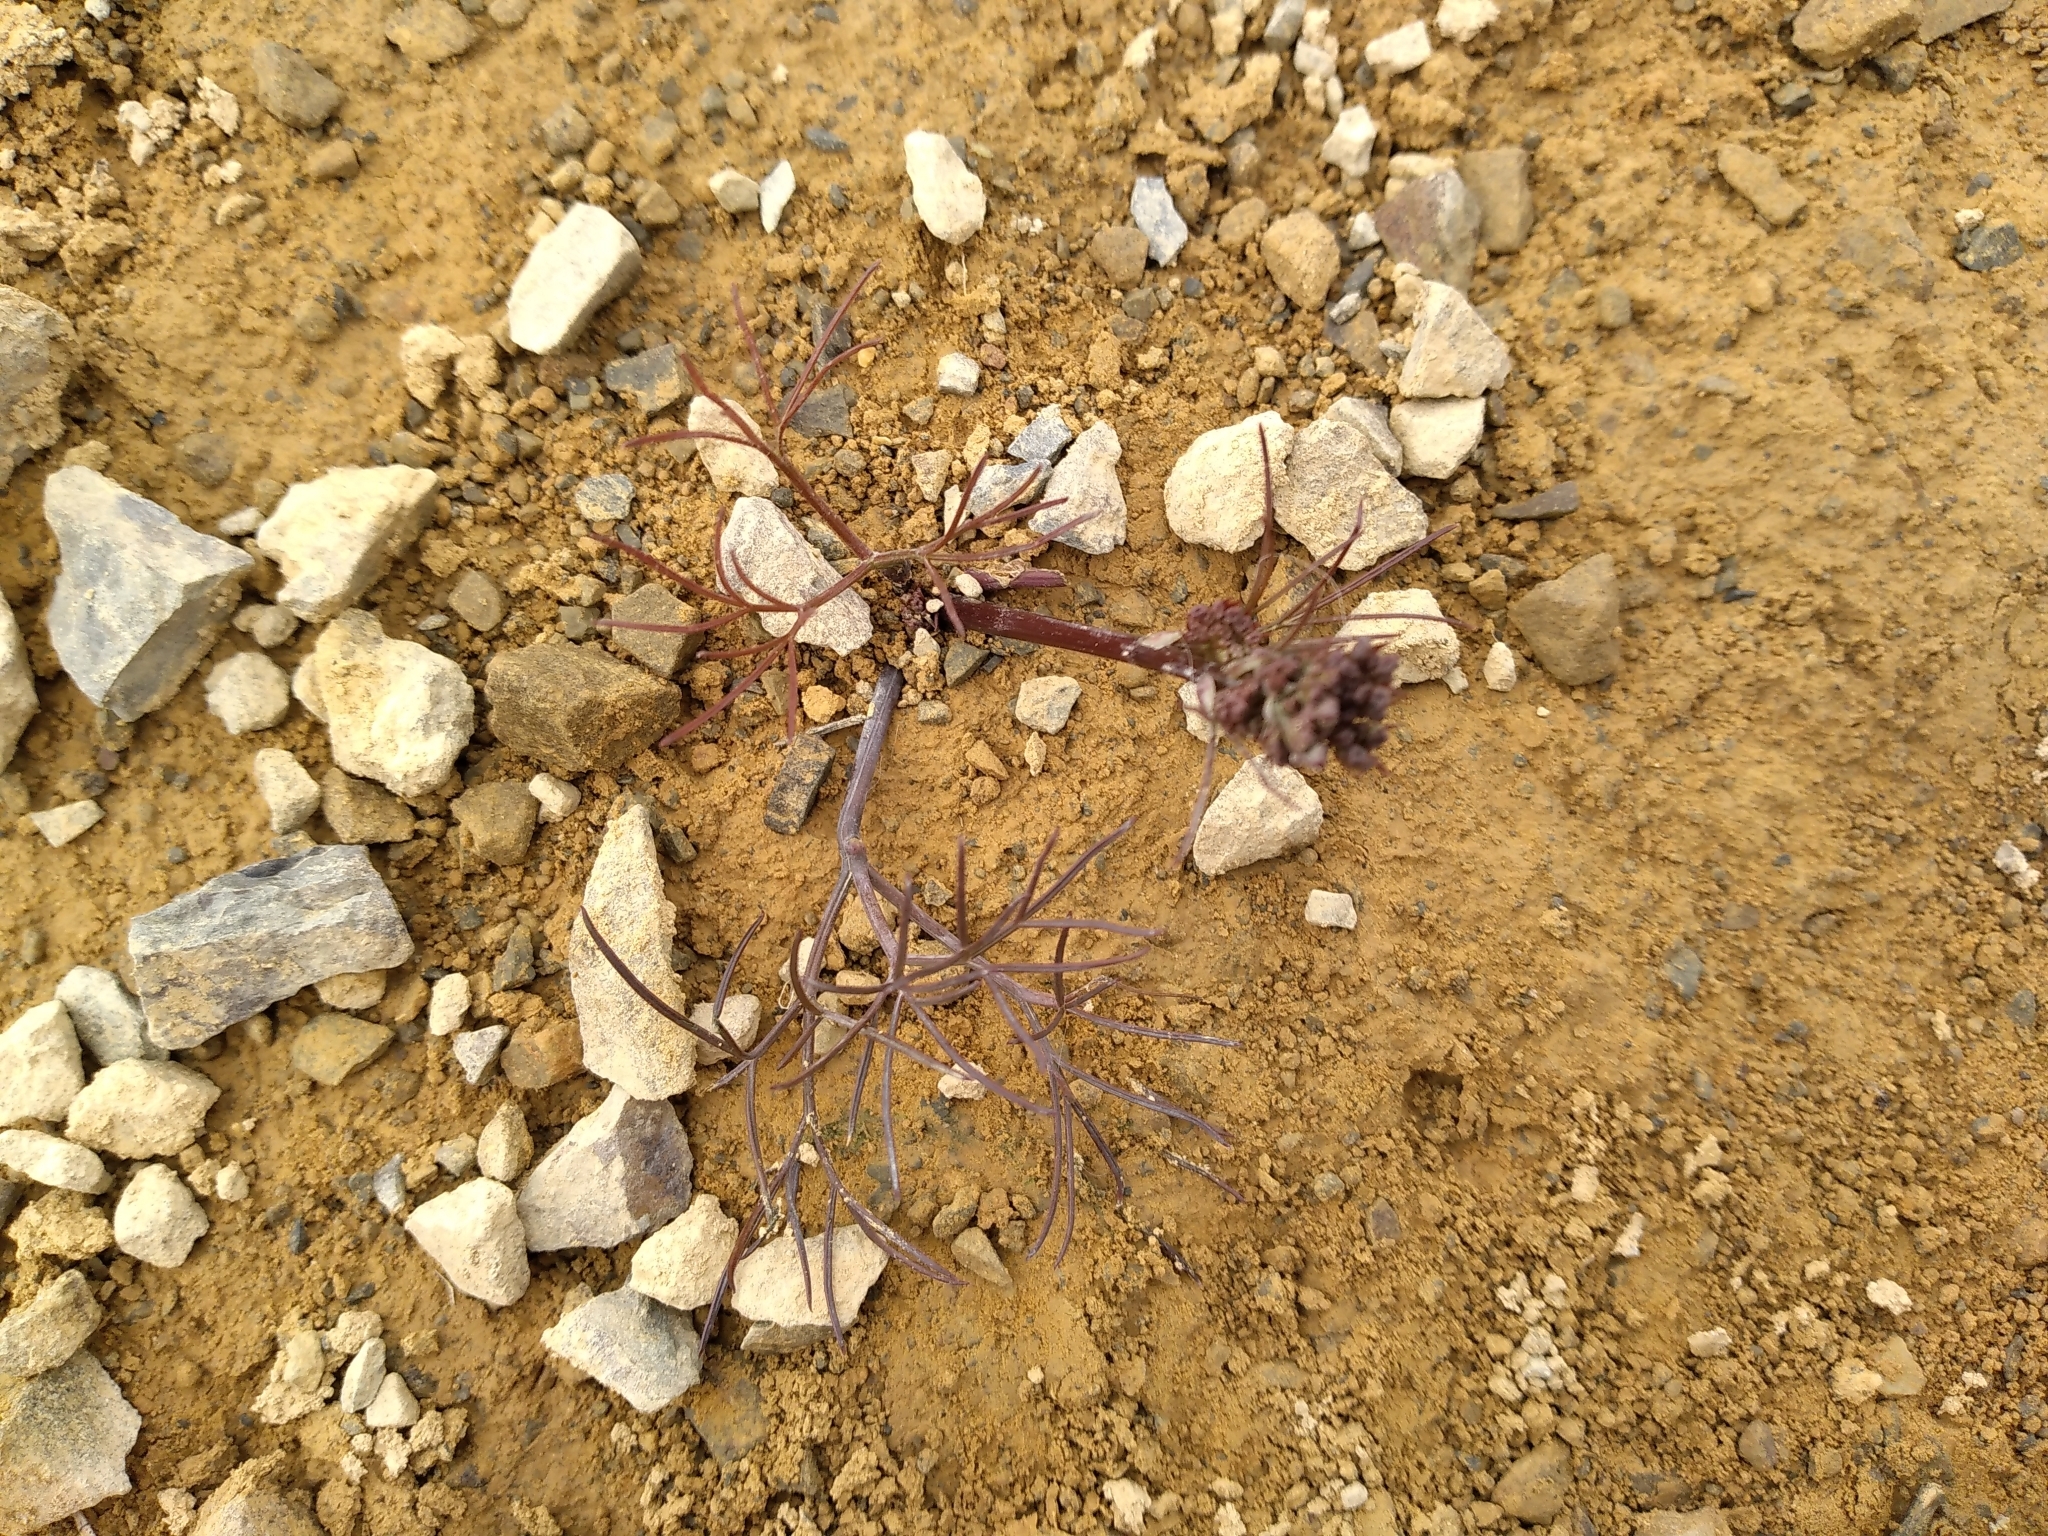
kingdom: Plantae
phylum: Tracheophyta
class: Magnoliopsida
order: Apiales
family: Apiaceae
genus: Anisotome
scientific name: Anisotome filifolia
